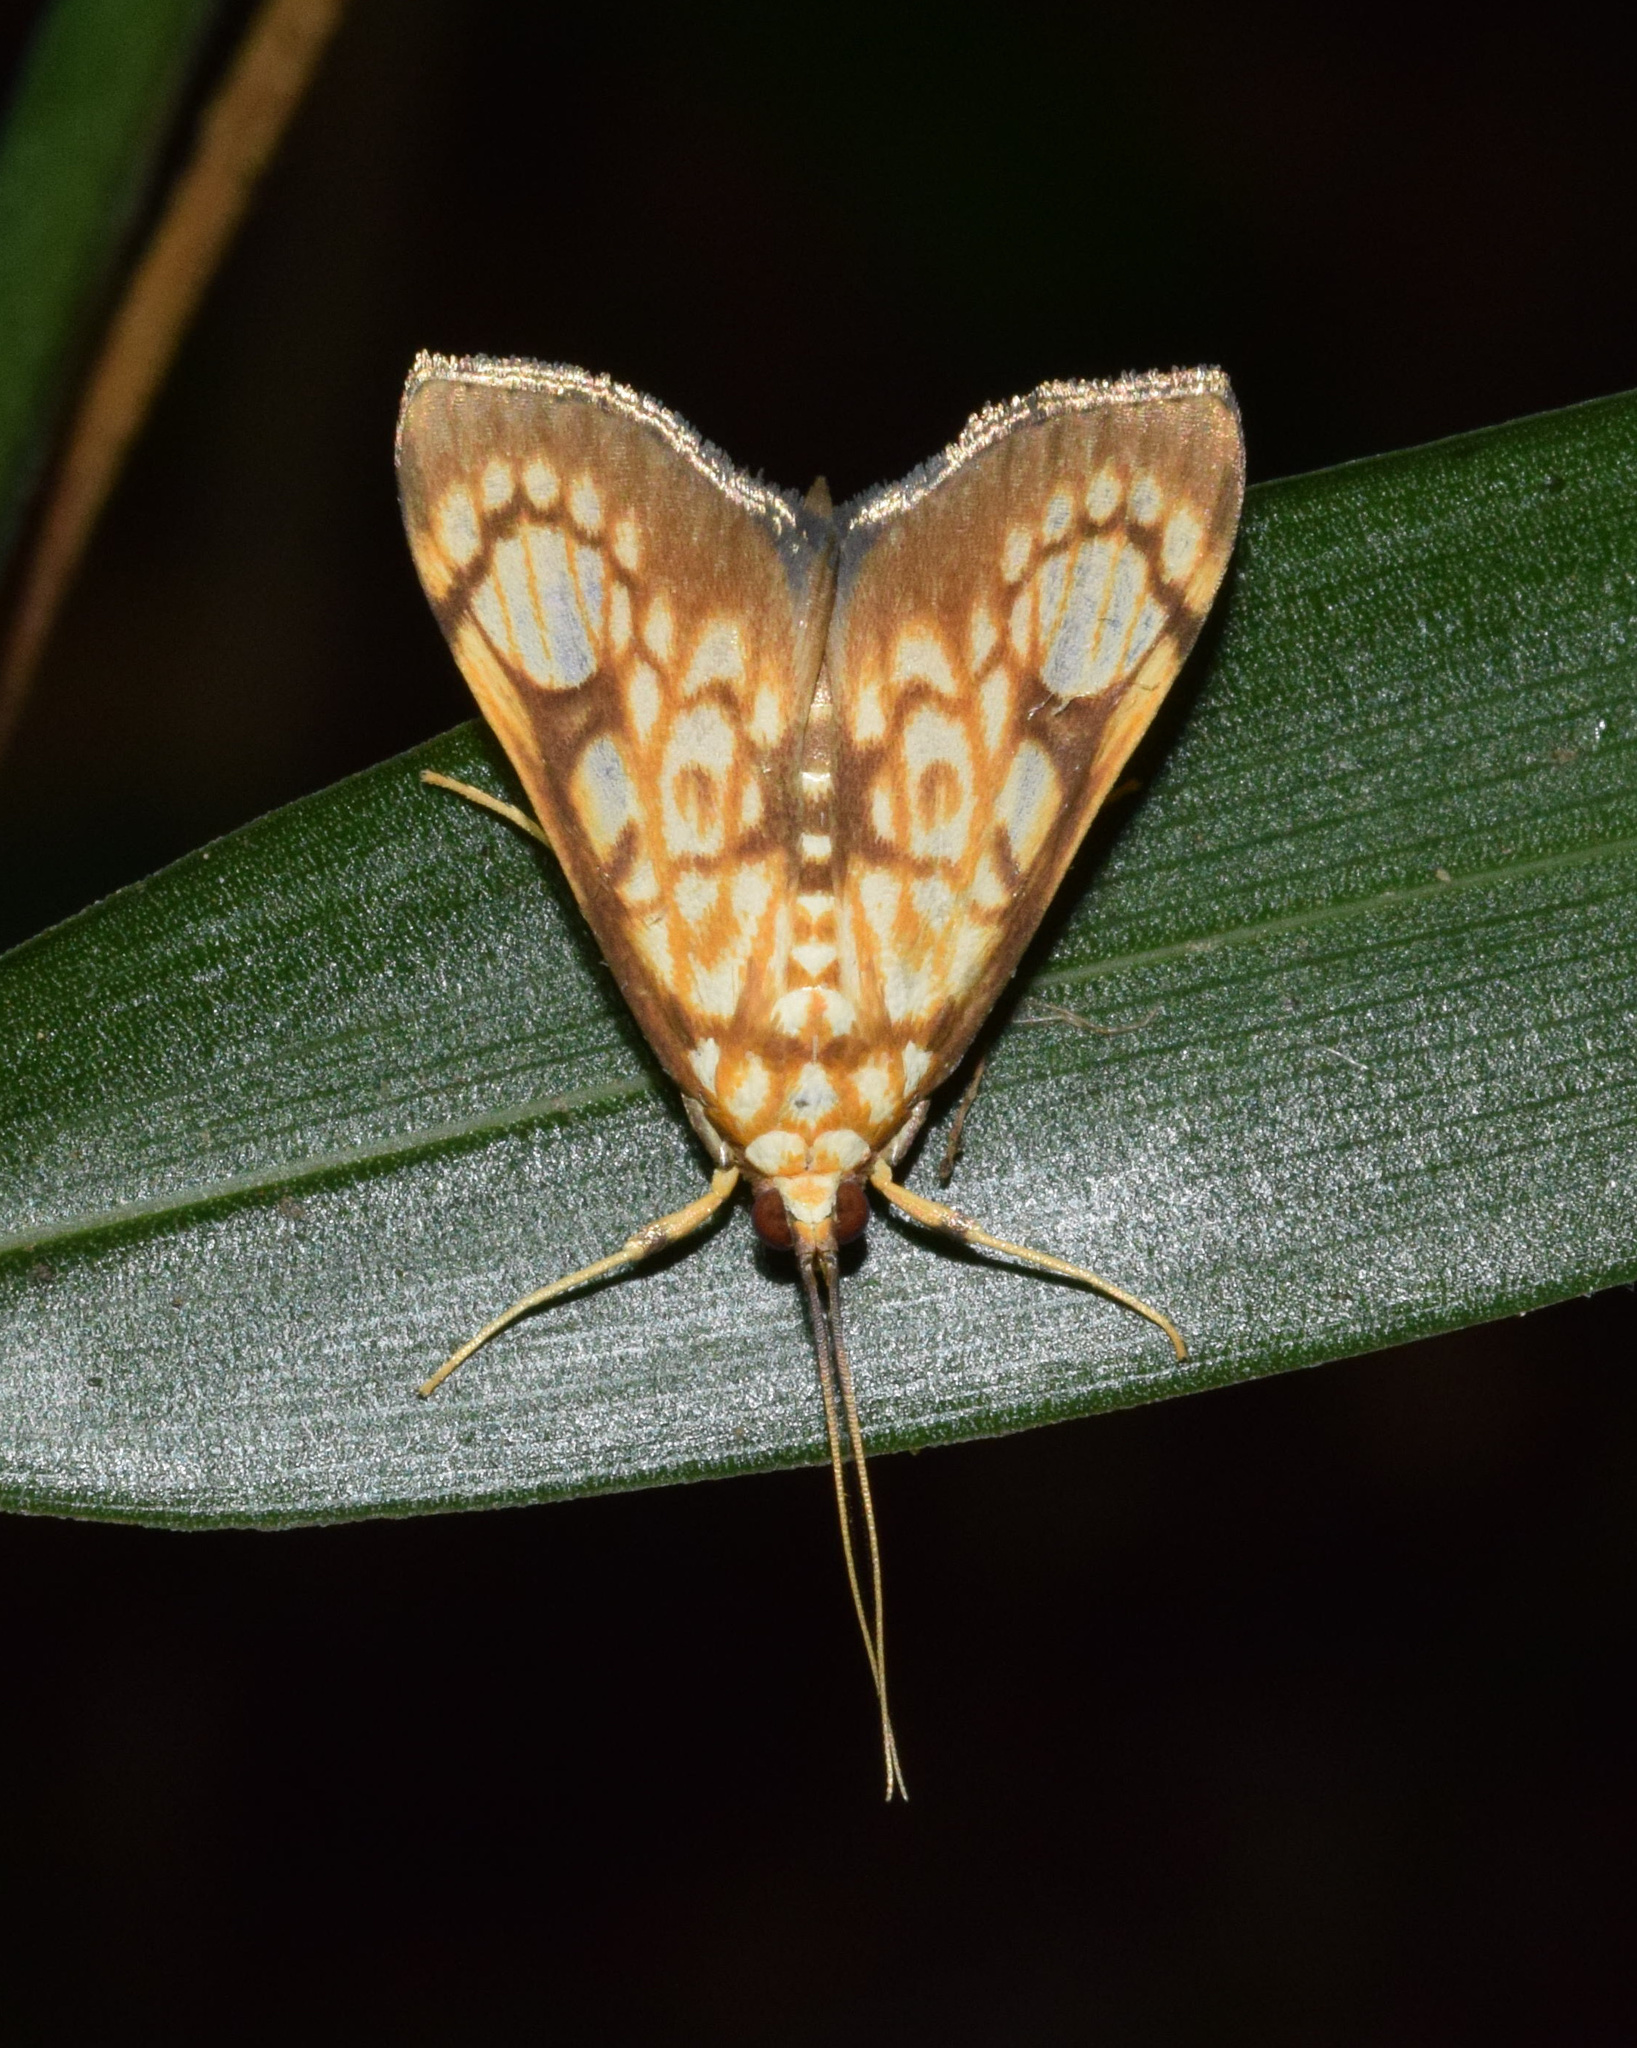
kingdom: Animalia
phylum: Arthropoda
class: Insecta
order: Lepidoptera
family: Crambidae
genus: Chalcidoptera
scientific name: Chalcidoptera rufilinealis
